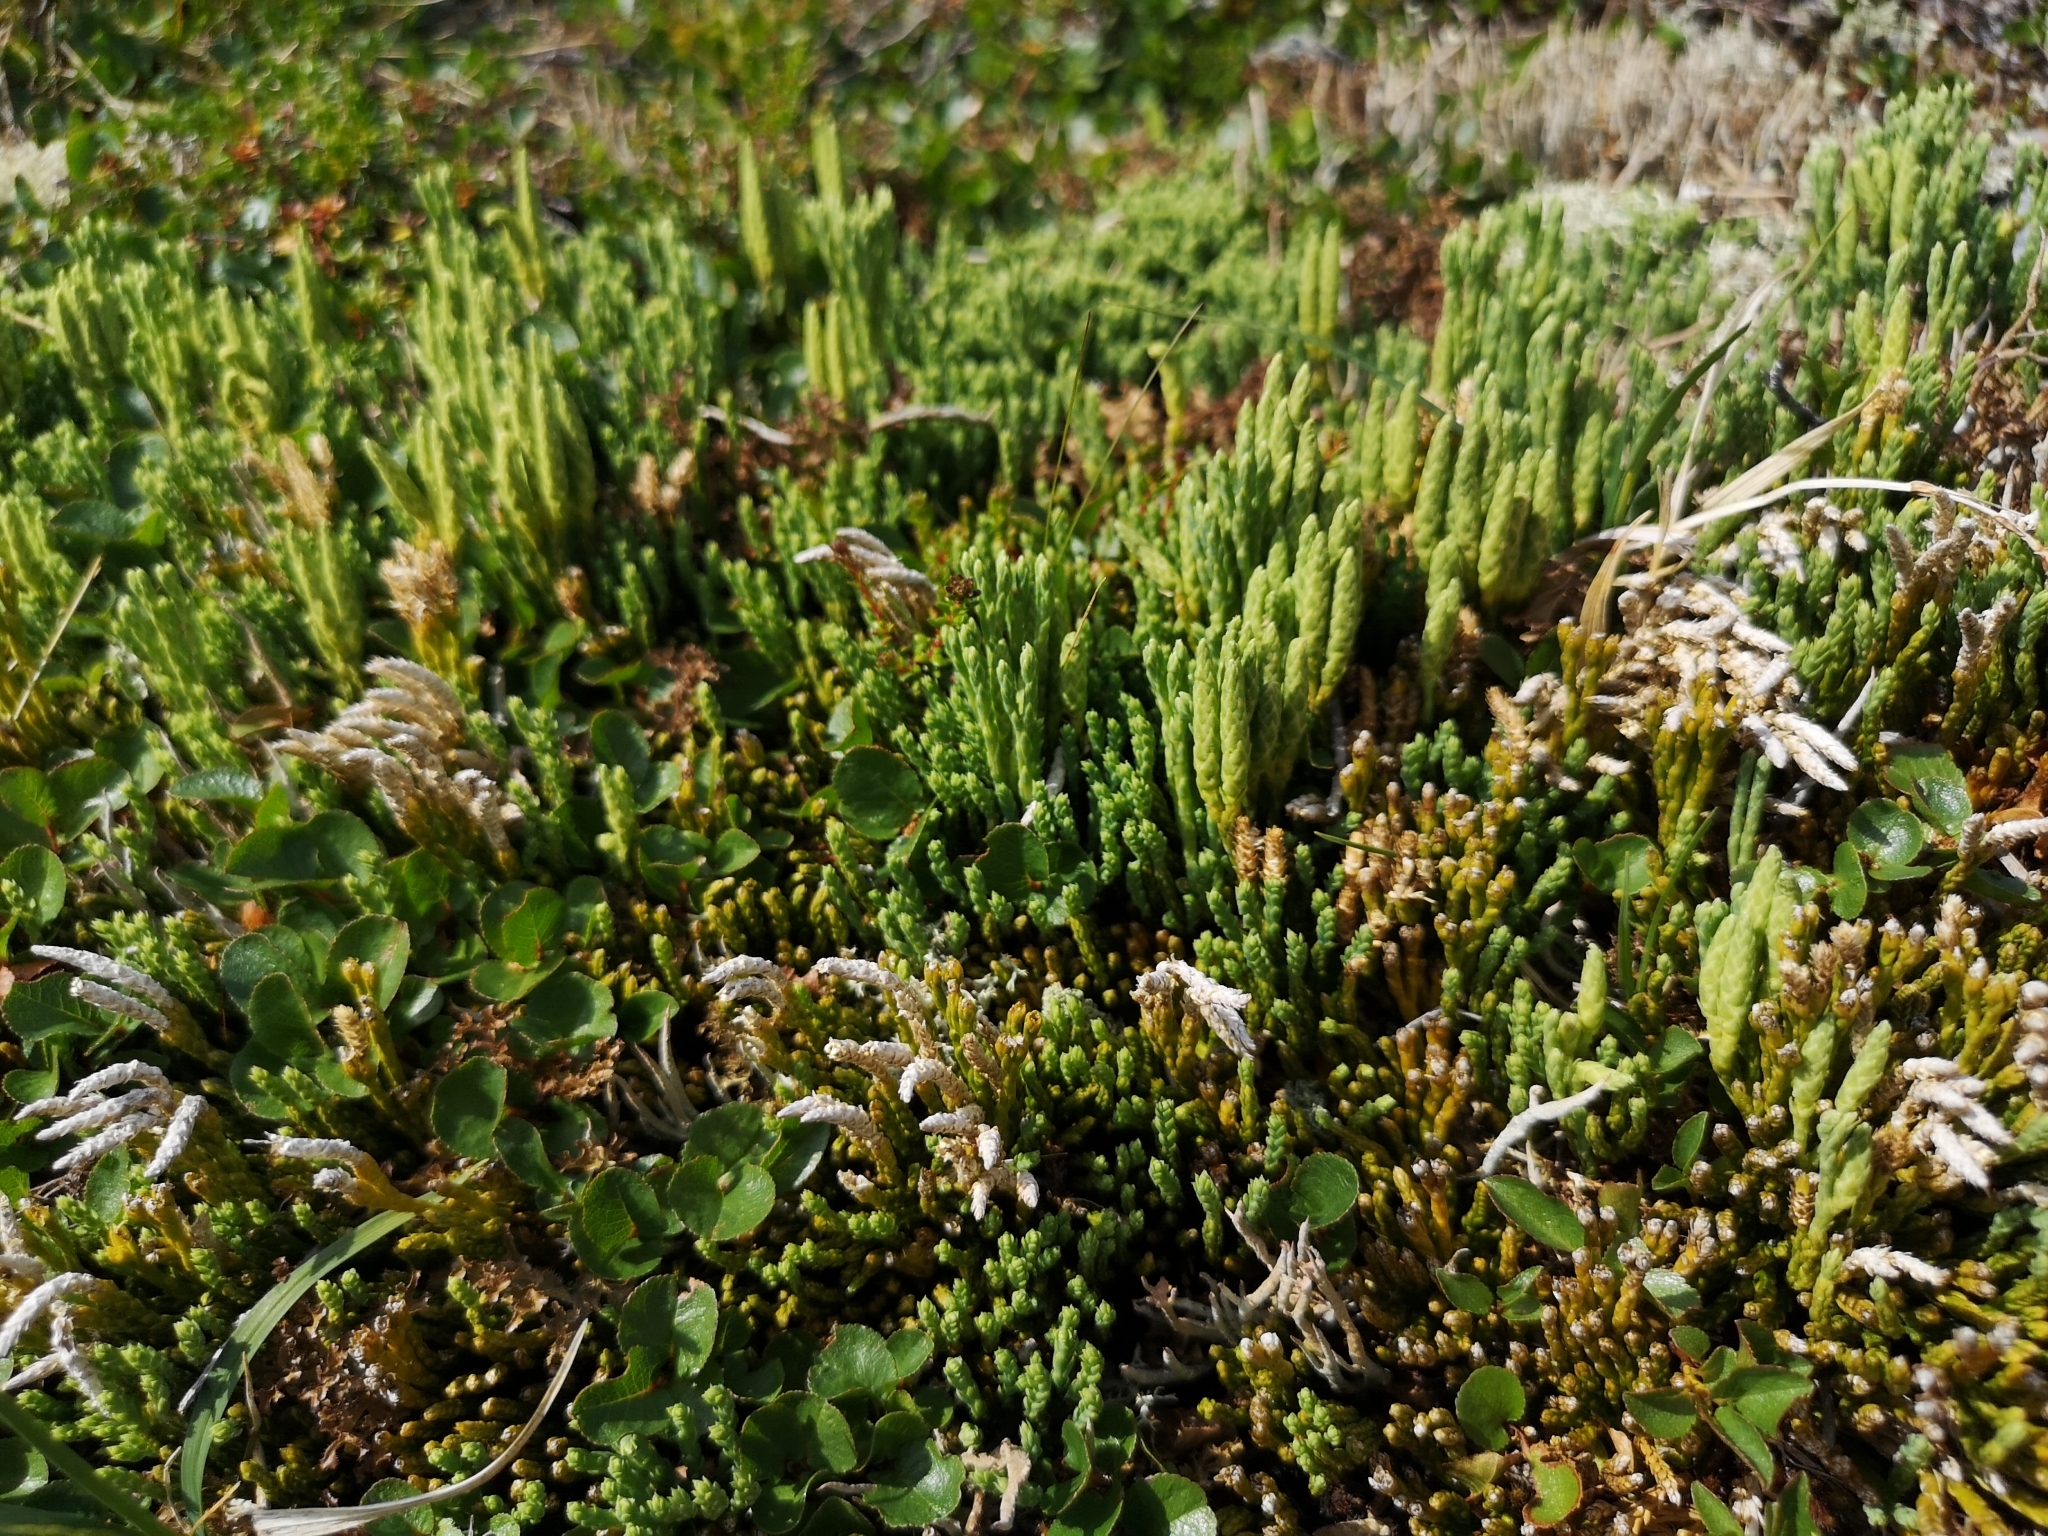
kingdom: Plantae
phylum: Tracheophyta
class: Lycopodiopsida
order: Lycopodiales
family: Lycopodiaceae
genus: Diphasiastrum
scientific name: Diphasiastrum alpinum
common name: Alpine clubmoss
